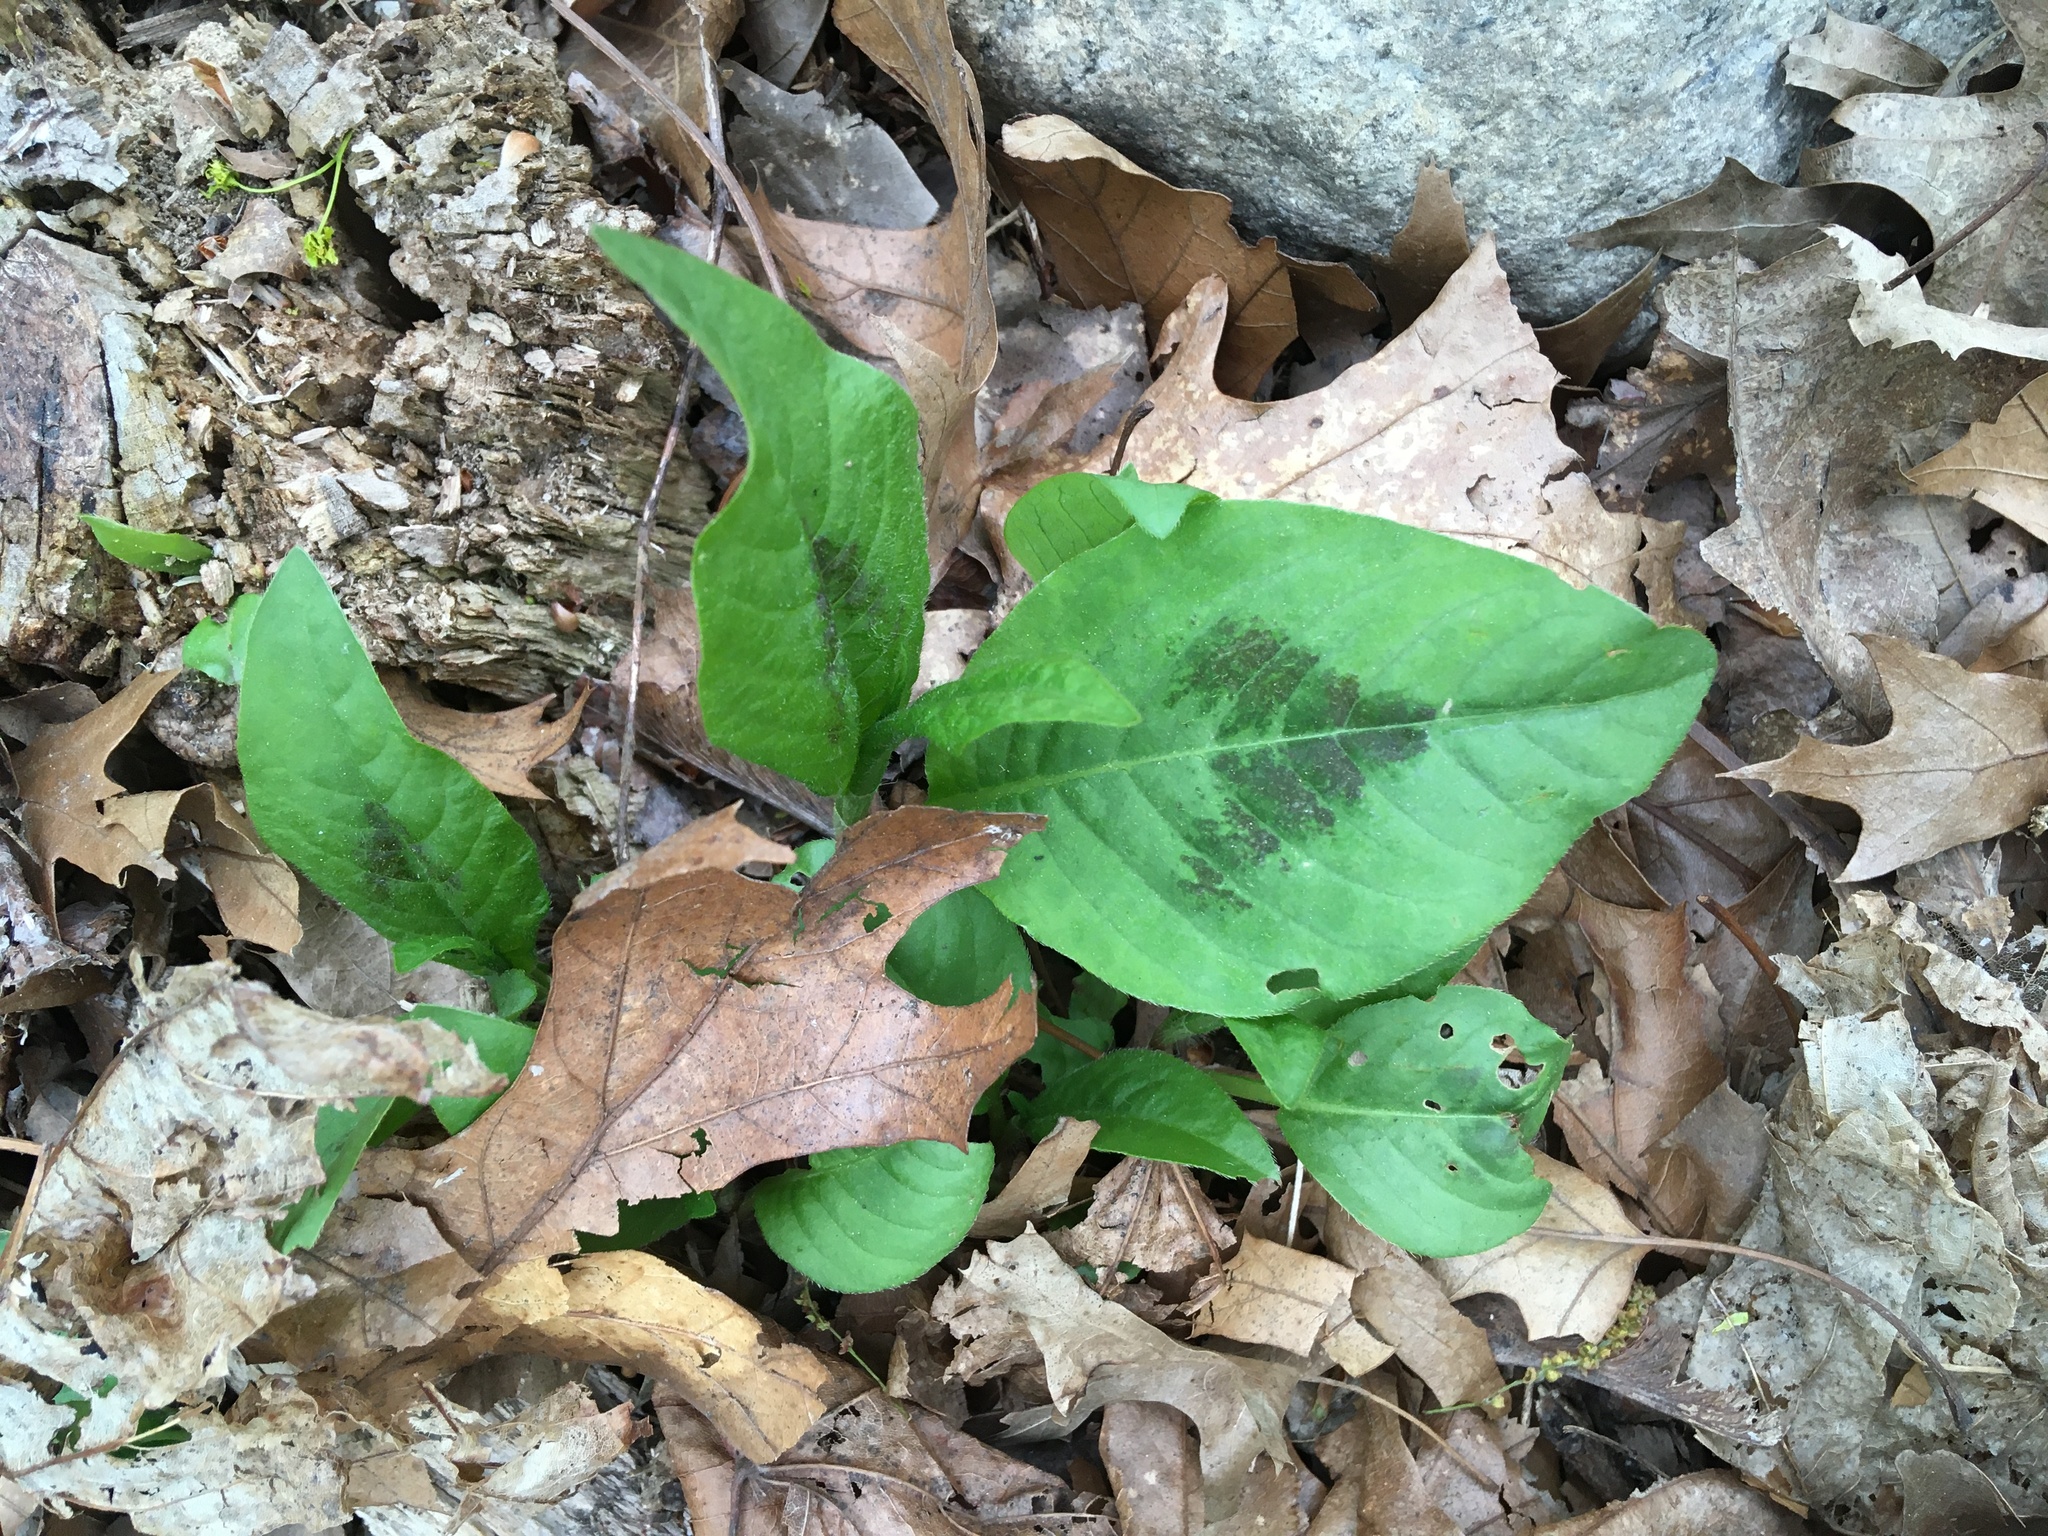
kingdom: Plantae
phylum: Tracheophyta
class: Magnoliopsida
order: Caryophyllales
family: Polygonaceae
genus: Persicaria
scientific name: Persicaria virginiana
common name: Jumpseed
